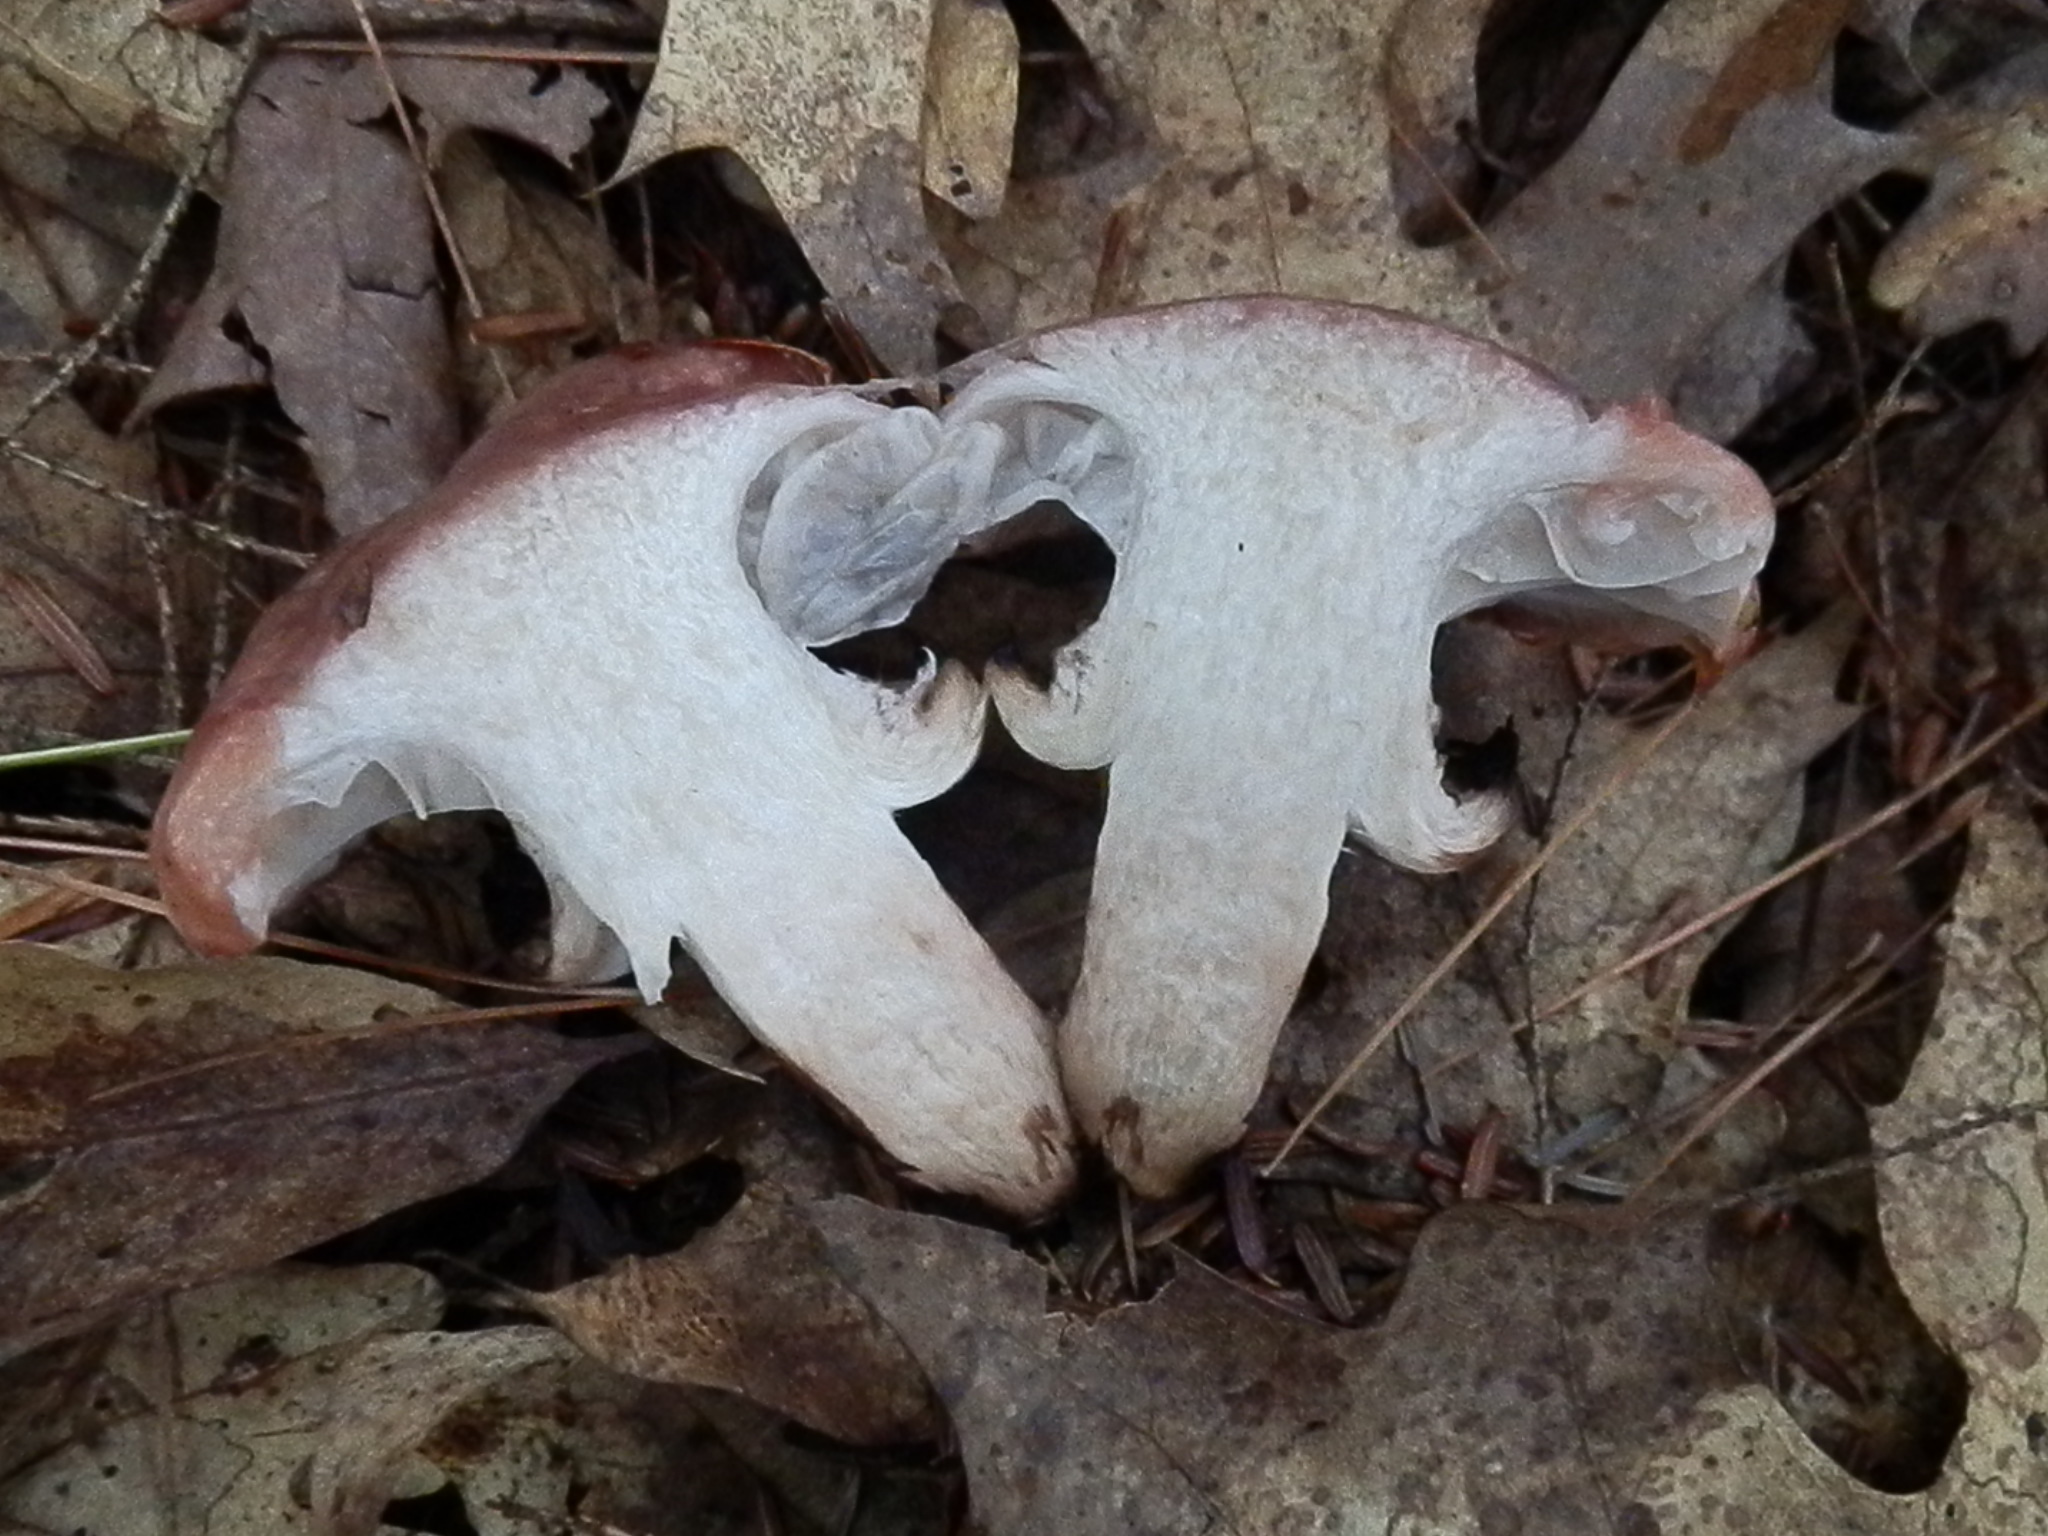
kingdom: Fungi
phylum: Basidiomycota
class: Agaricomycetes
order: Boletales
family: Gomphidiaceae
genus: Gomphidius
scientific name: Gomphidius glutinosus
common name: Slimy spike
